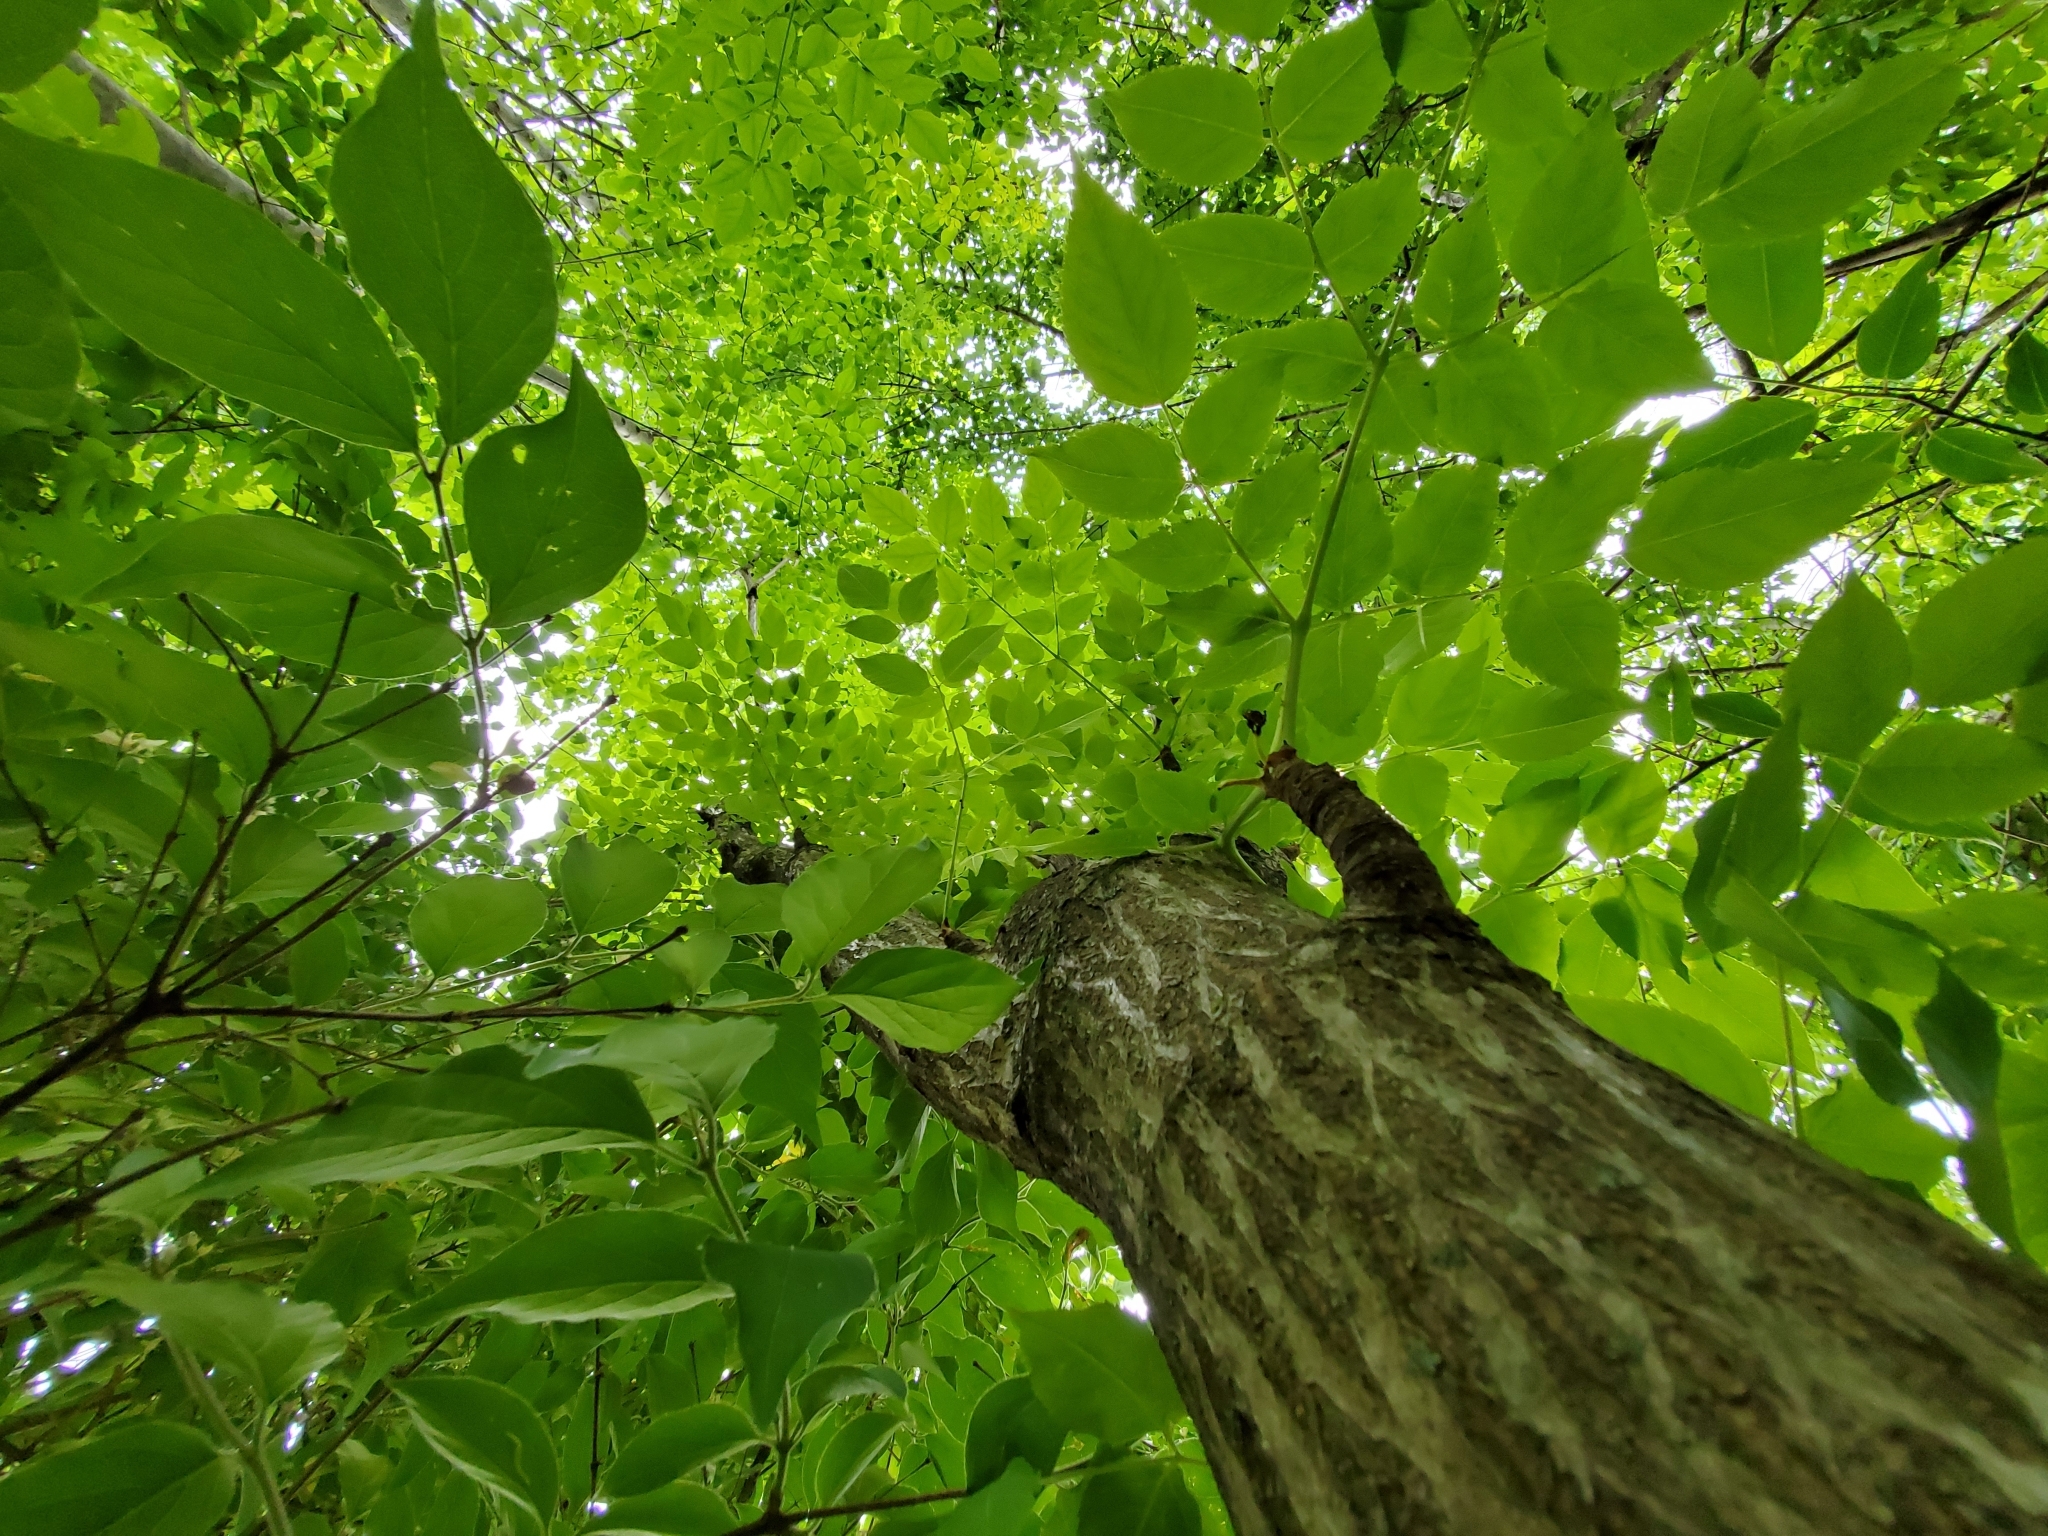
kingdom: Plantae
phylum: Tracheophyta
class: Magnoliopsida
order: Apiales
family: Araliaceae
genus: Aralia
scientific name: Aralia spinosa
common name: Hercules'-club
